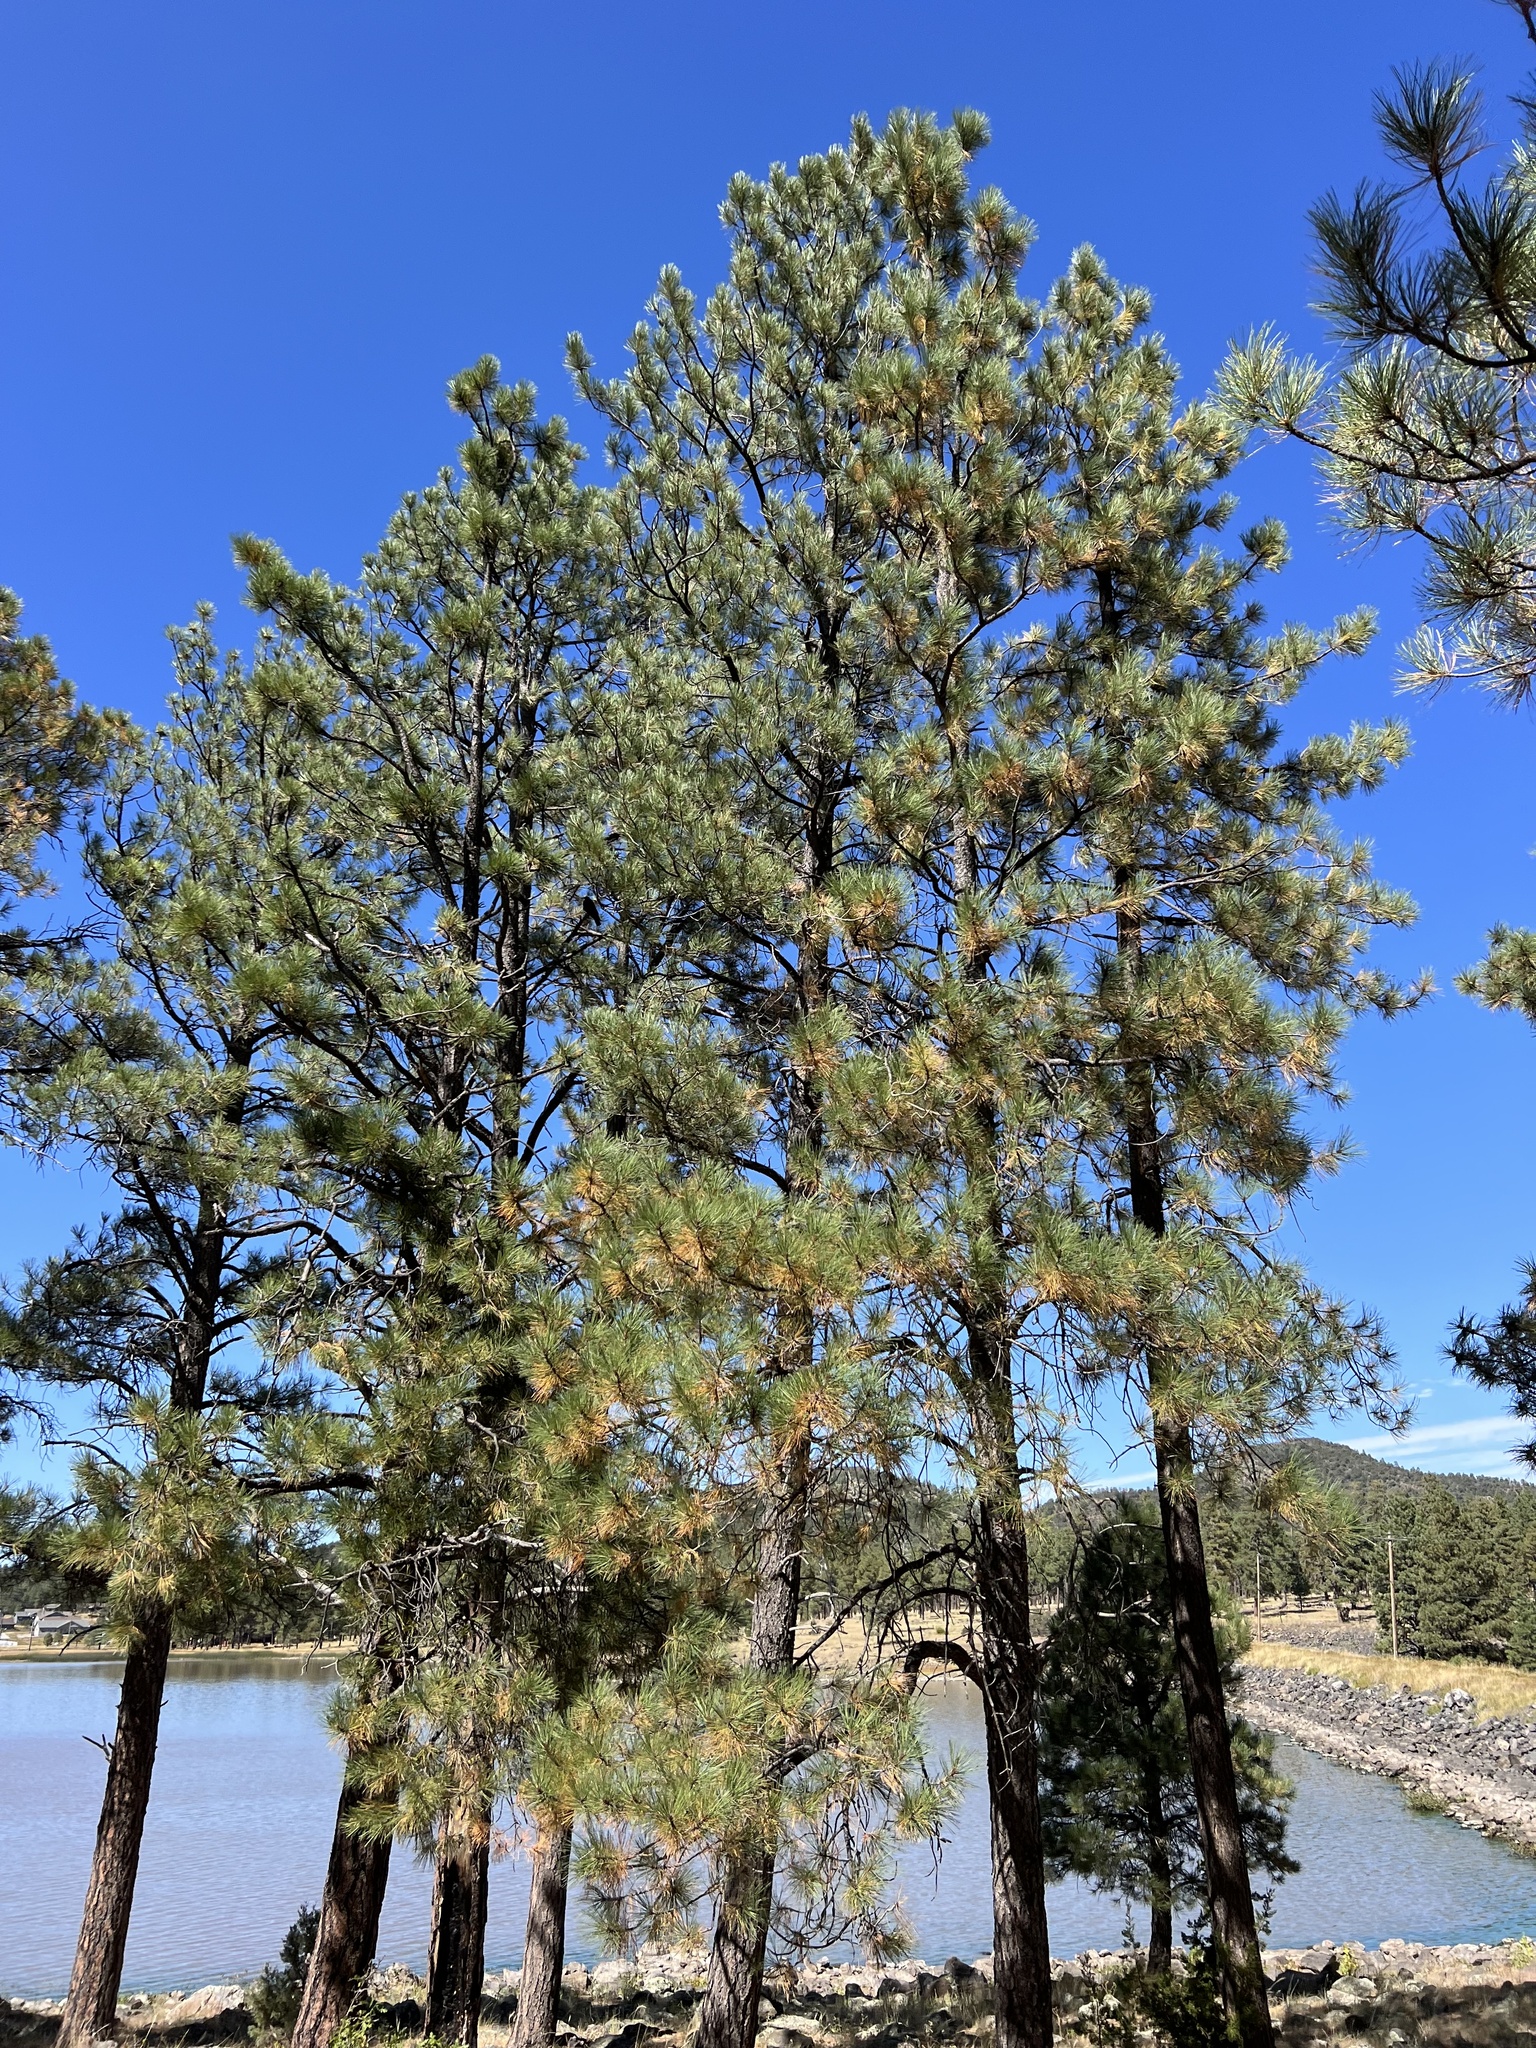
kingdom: Plantae
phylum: Tracheophyta
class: Pinopsida
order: Pinales
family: Pinaceae
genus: Pinus
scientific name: Pinus ponderosa
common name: Western yellow-pine
